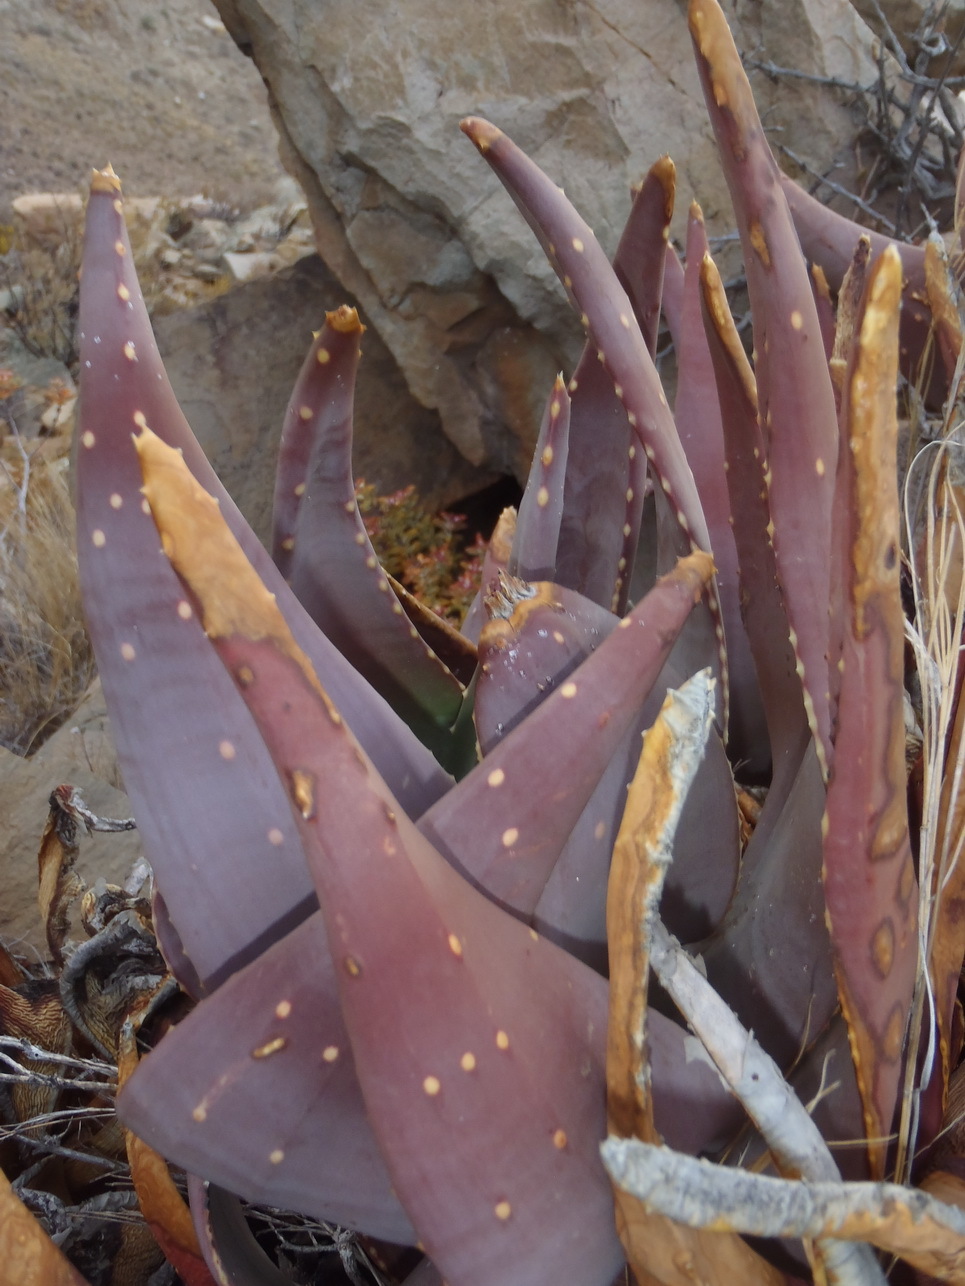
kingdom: Plantae
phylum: Tracheophyta
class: Liliopsida
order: Asparagales
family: Asphodelaceae
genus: Aloe
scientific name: Aloe comptonii
